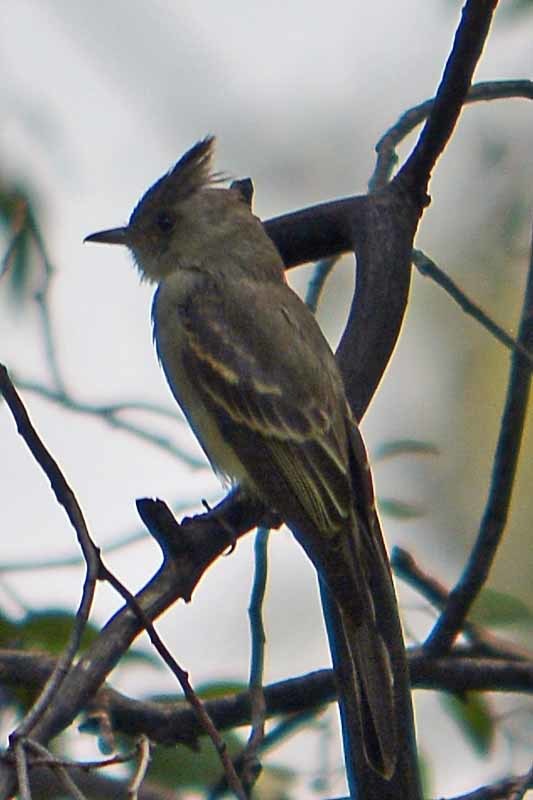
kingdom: Animalia
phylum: Chordata
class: Aves
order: Passeriformes
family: Tyrannidae
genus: Contopus
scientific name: Contopus pertinax
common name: Greater pewee
